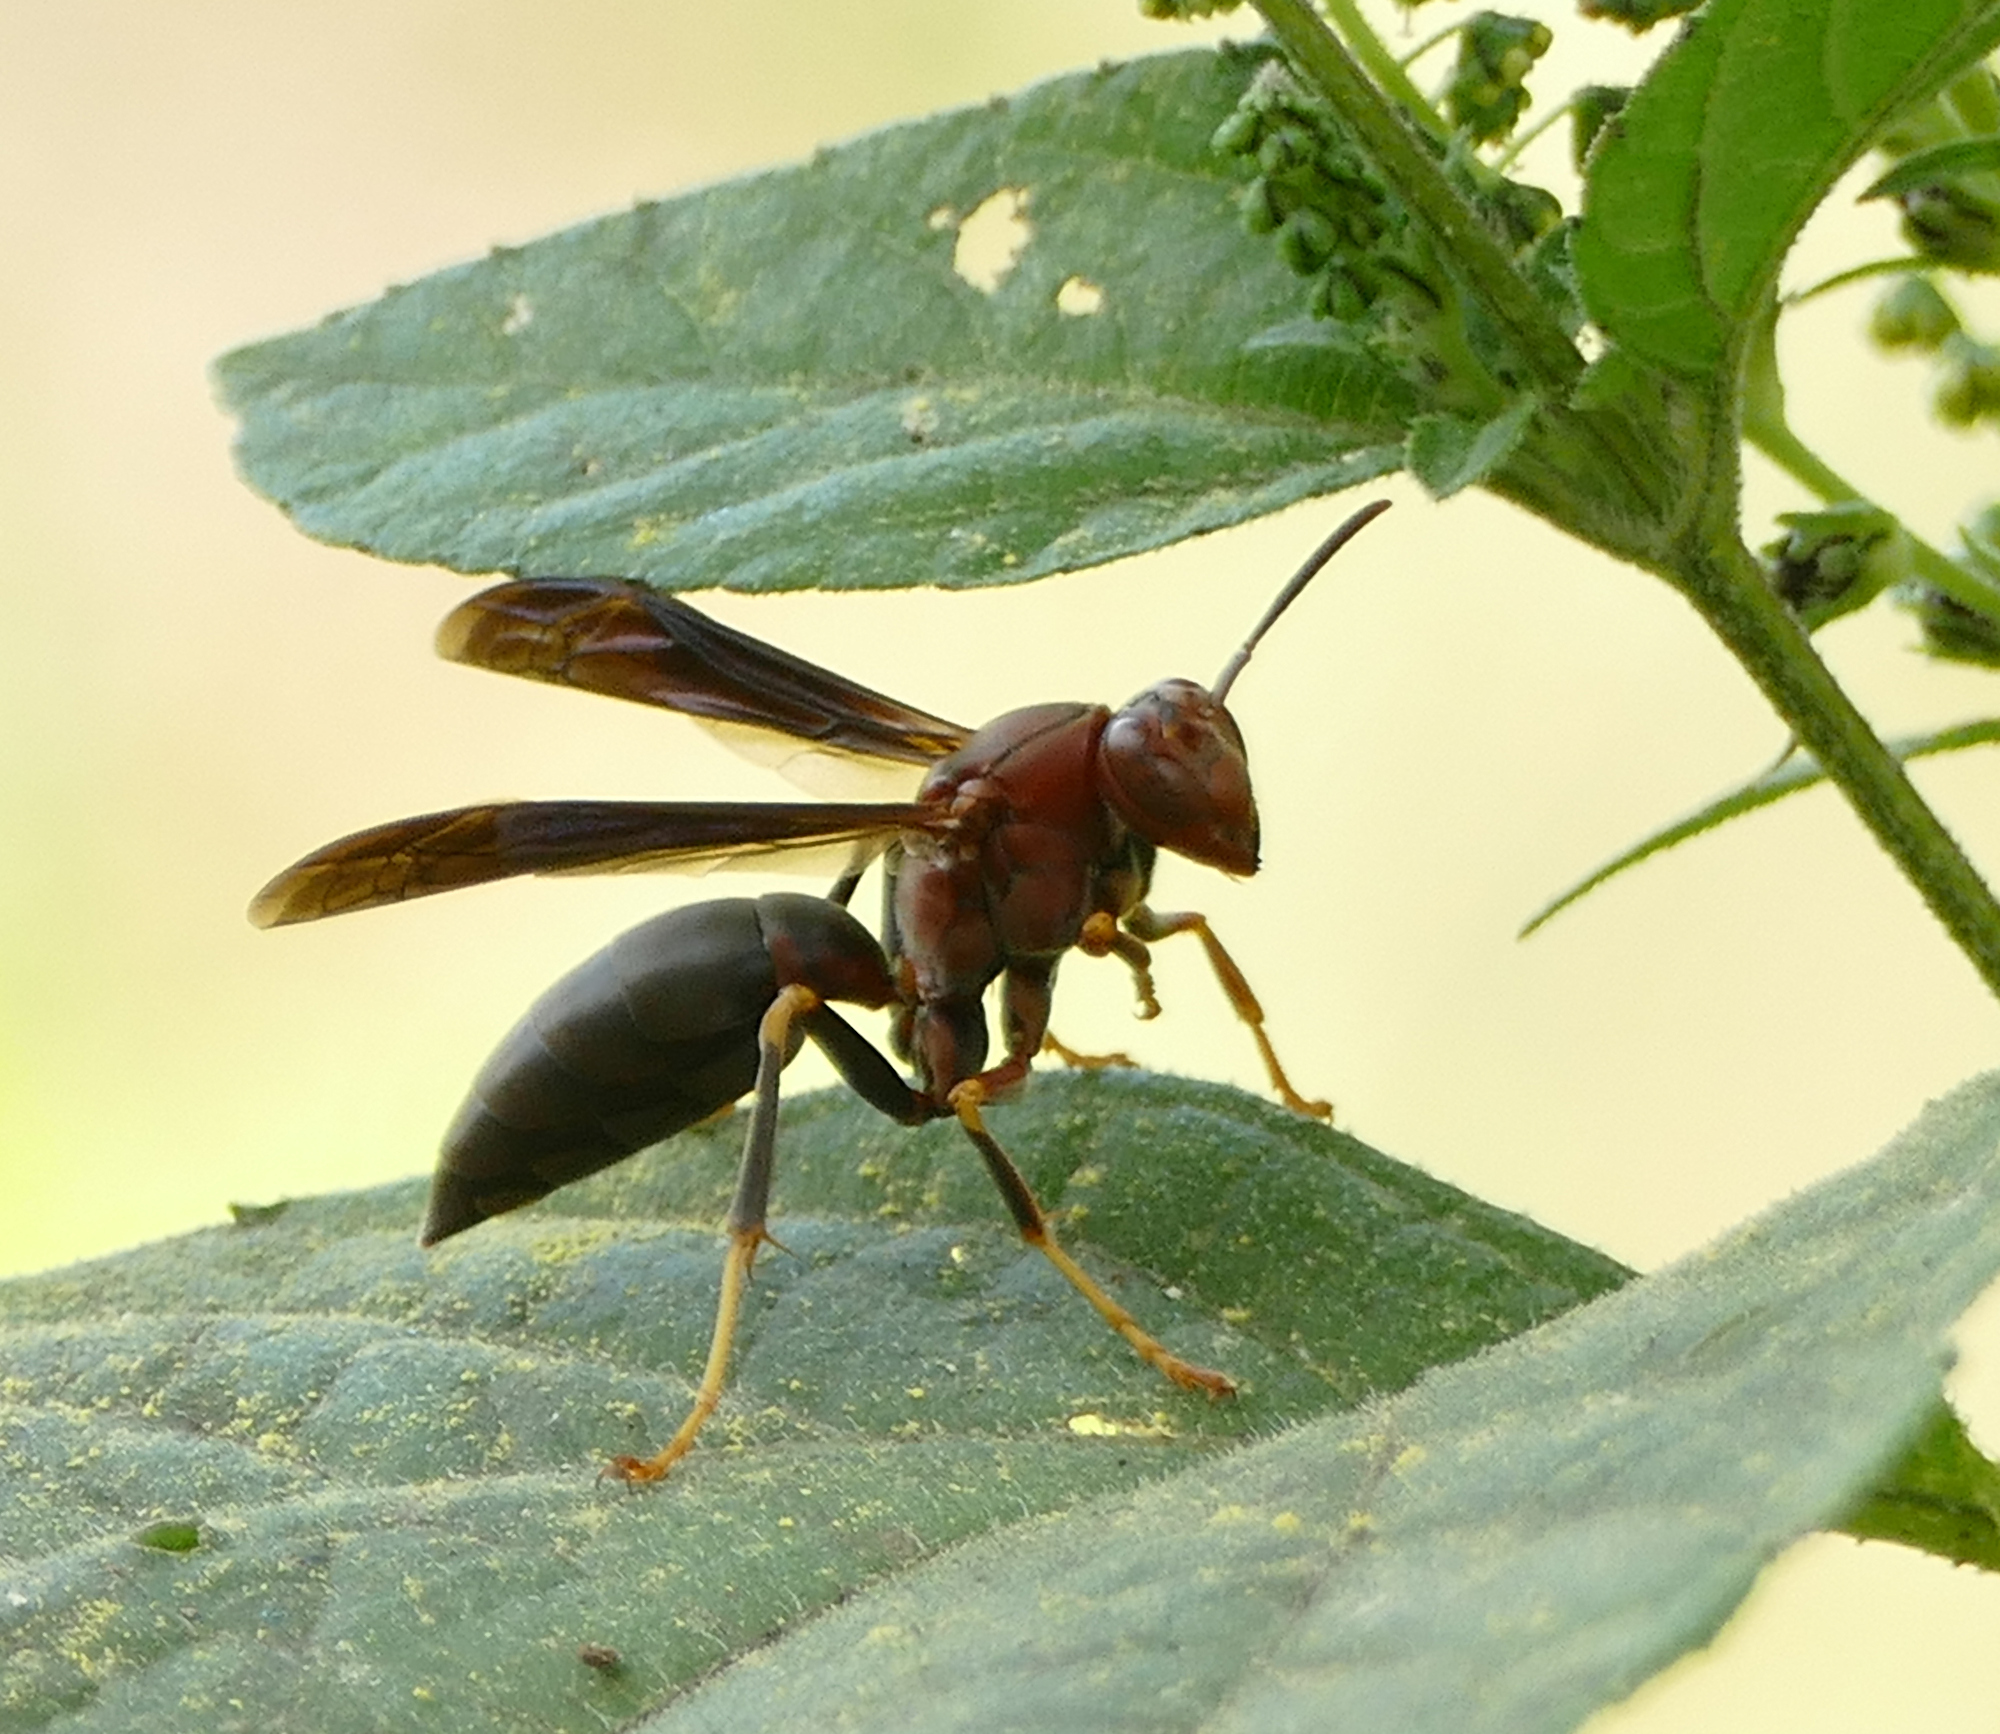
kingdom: Animalia
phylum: Arthropoda
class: Insecta
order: Hymenoptera
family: Eumenidae
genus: Polistes
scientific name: Polistes metricus
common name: Metric paper wasp
